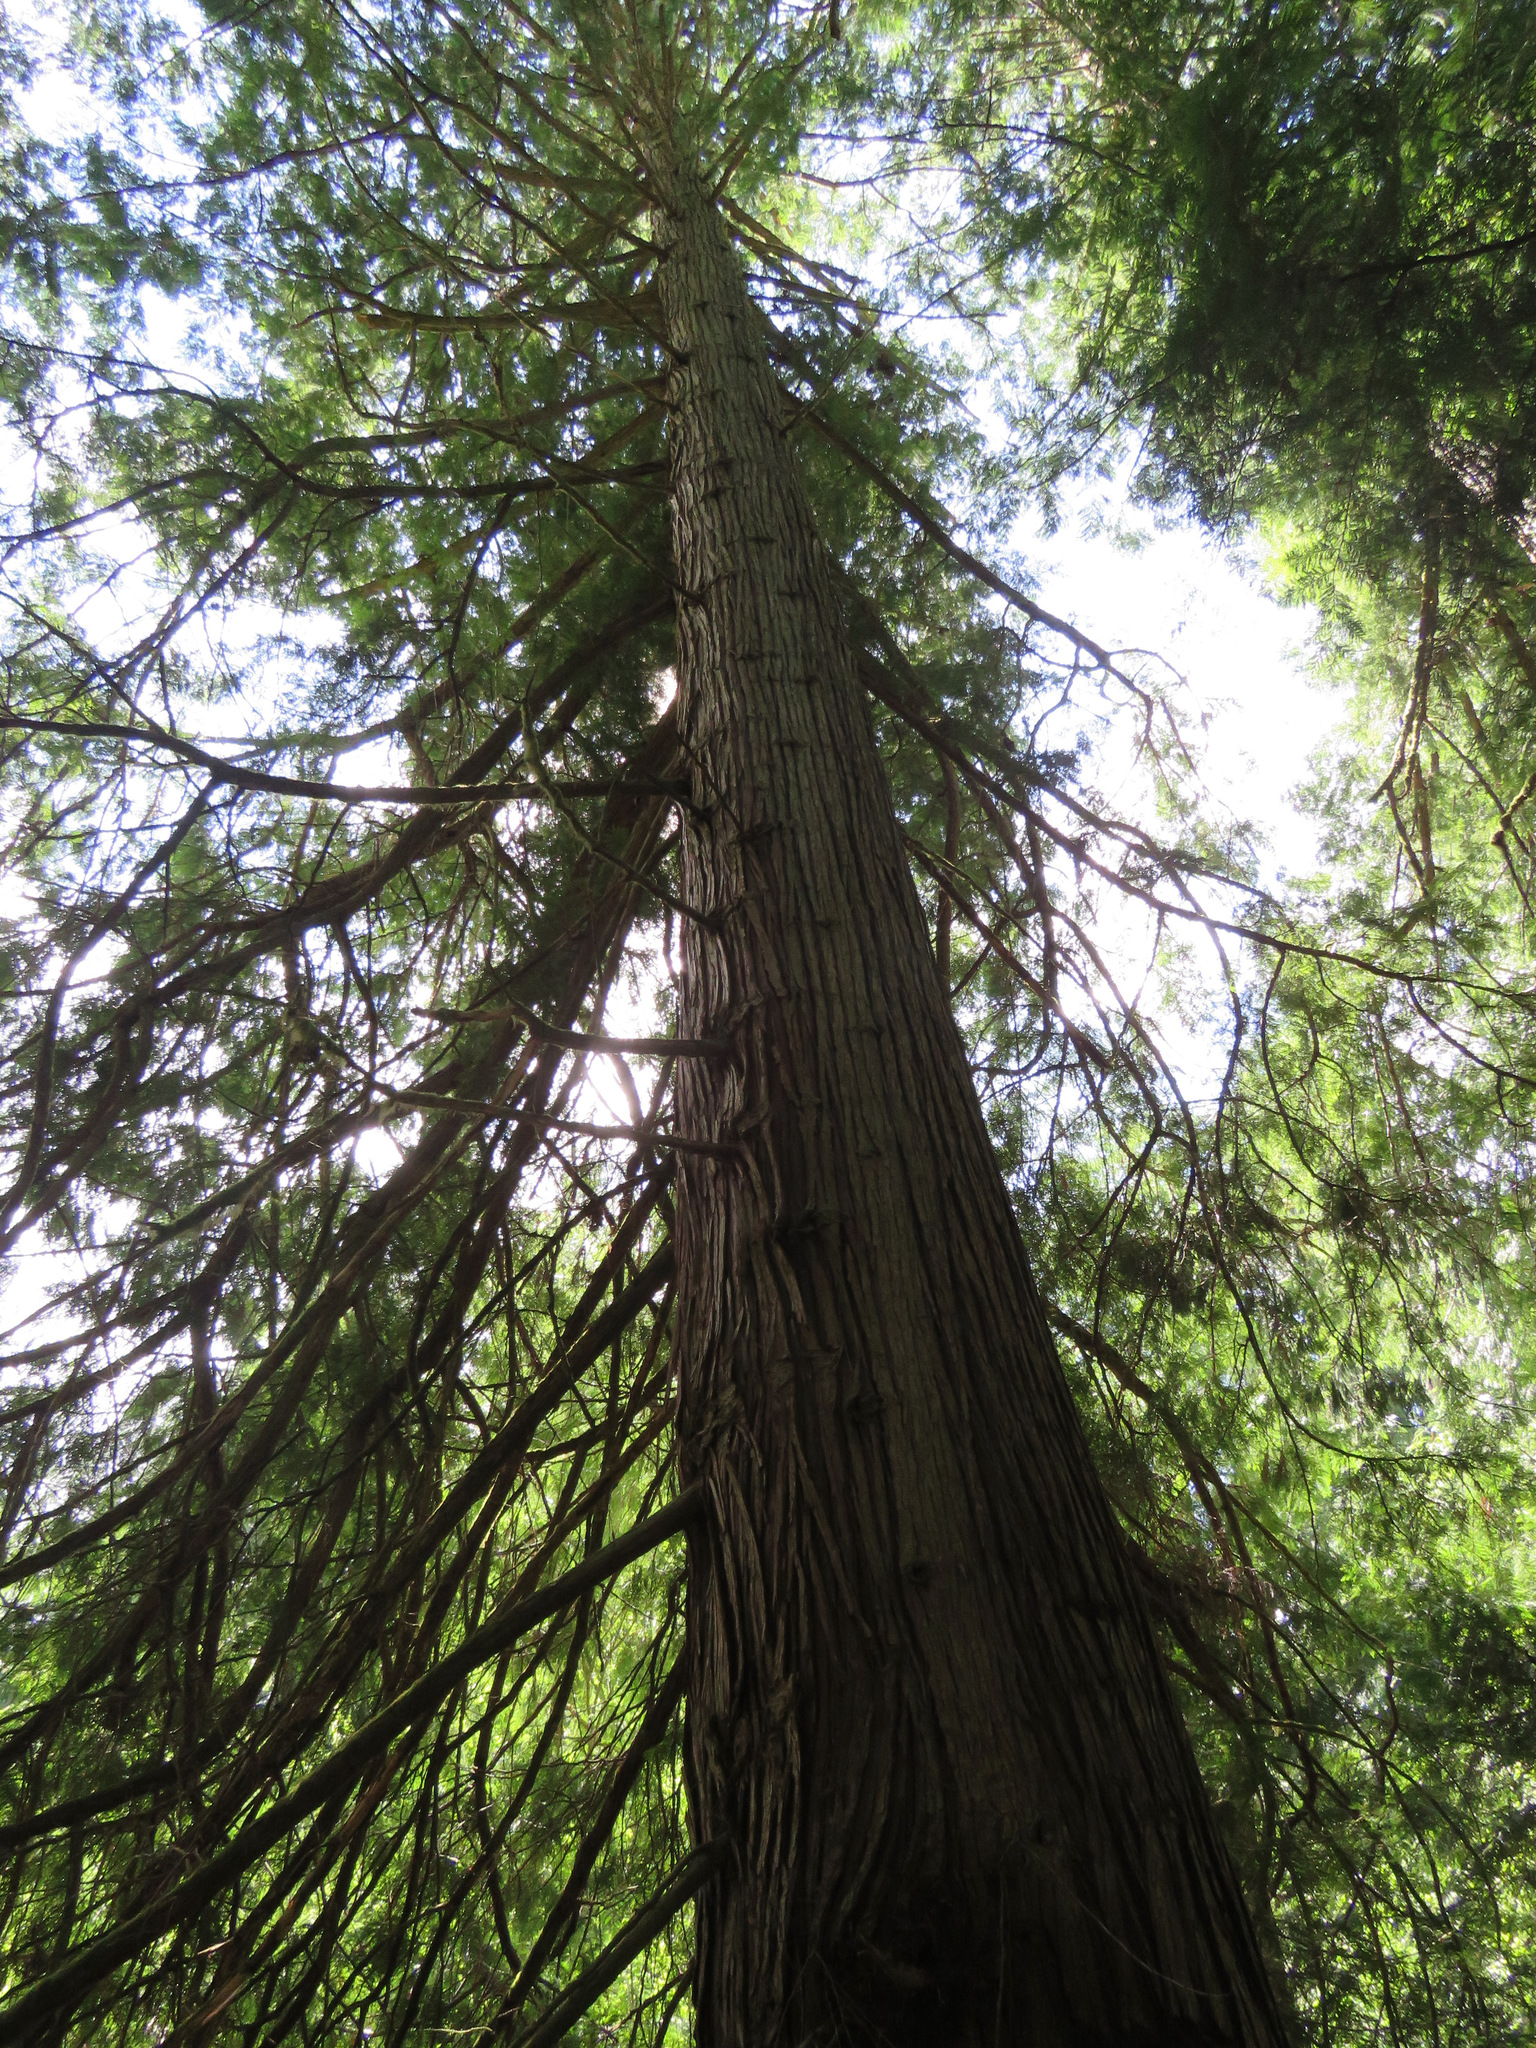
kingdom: Plantae
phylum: Tracheophyta
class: Pinopsida
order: Pinales
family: Cupressaceae
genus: Thuja
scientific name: Thuja plicata
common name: Western red-cedar
